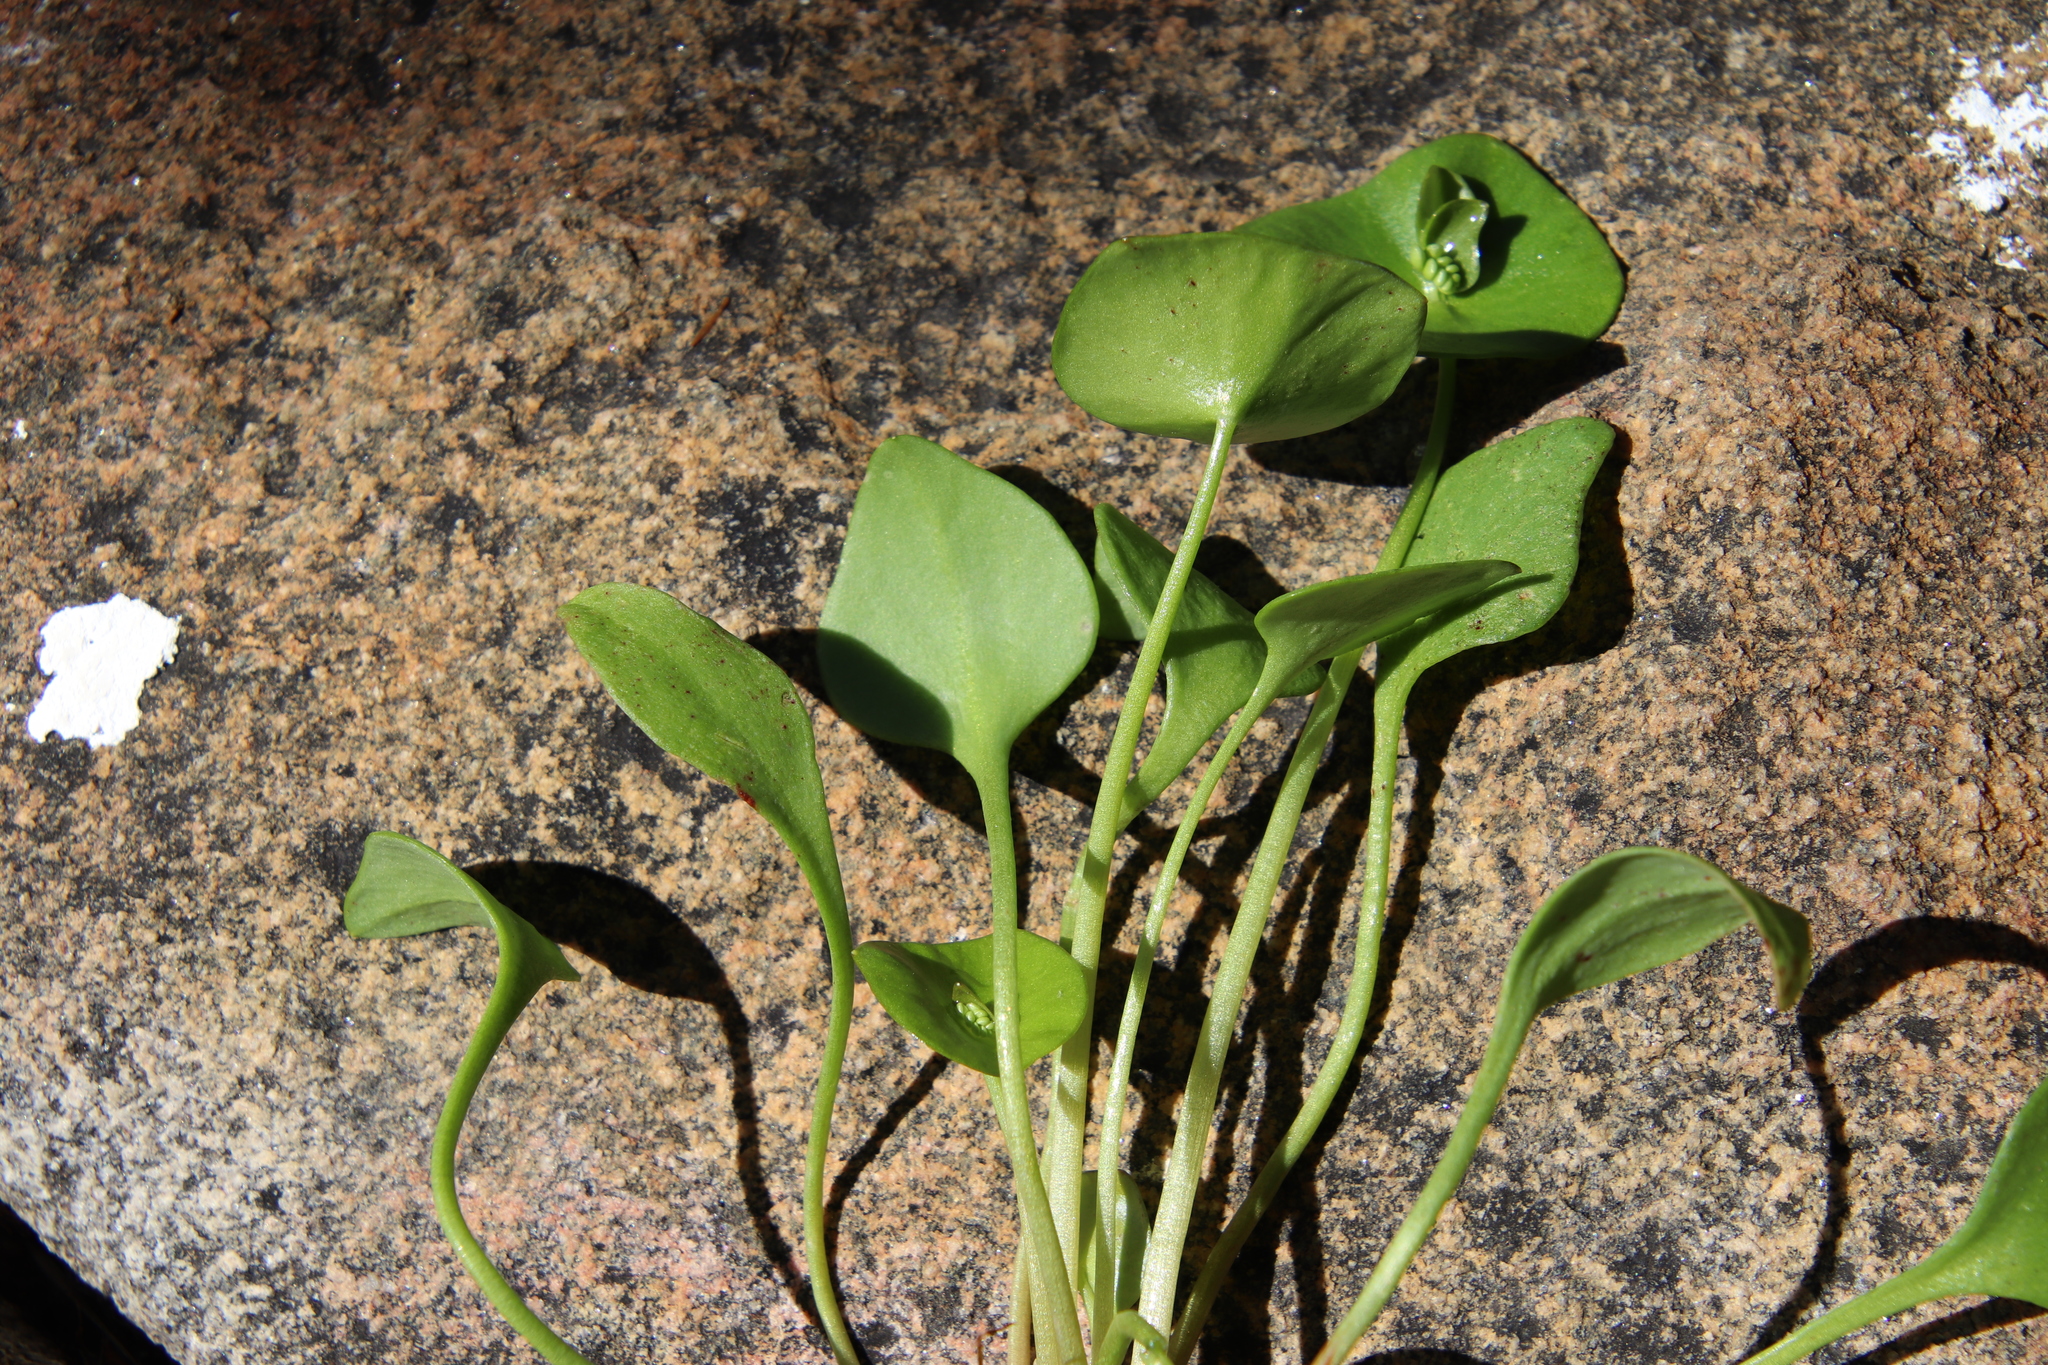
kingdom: Plantae
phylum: Tracheophyta
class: Magnoliopsida
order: Caryophyllales
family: Montiaceae
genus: Claytonia
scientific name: Claytonia perfoliata
